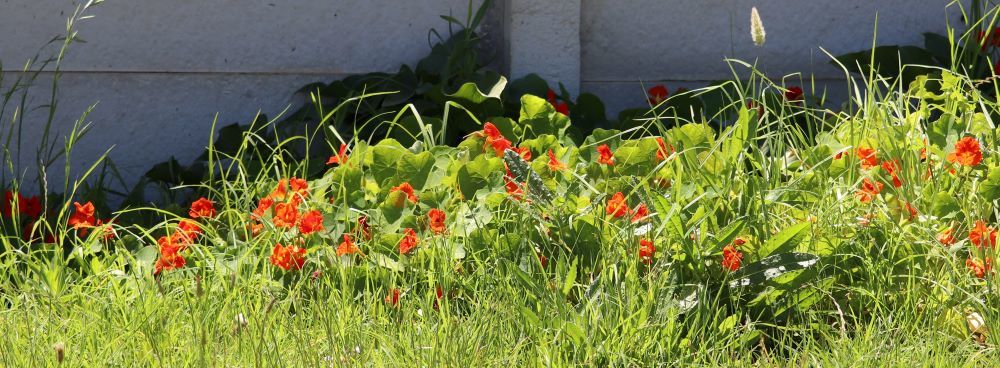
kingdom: Plantae
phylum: Tracheophyta
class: Magnoliopsida
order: Brassicales
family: Tropaeolaceae
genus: Tropaeolum
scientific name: Tropaeolum majus
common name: Nasturtium
